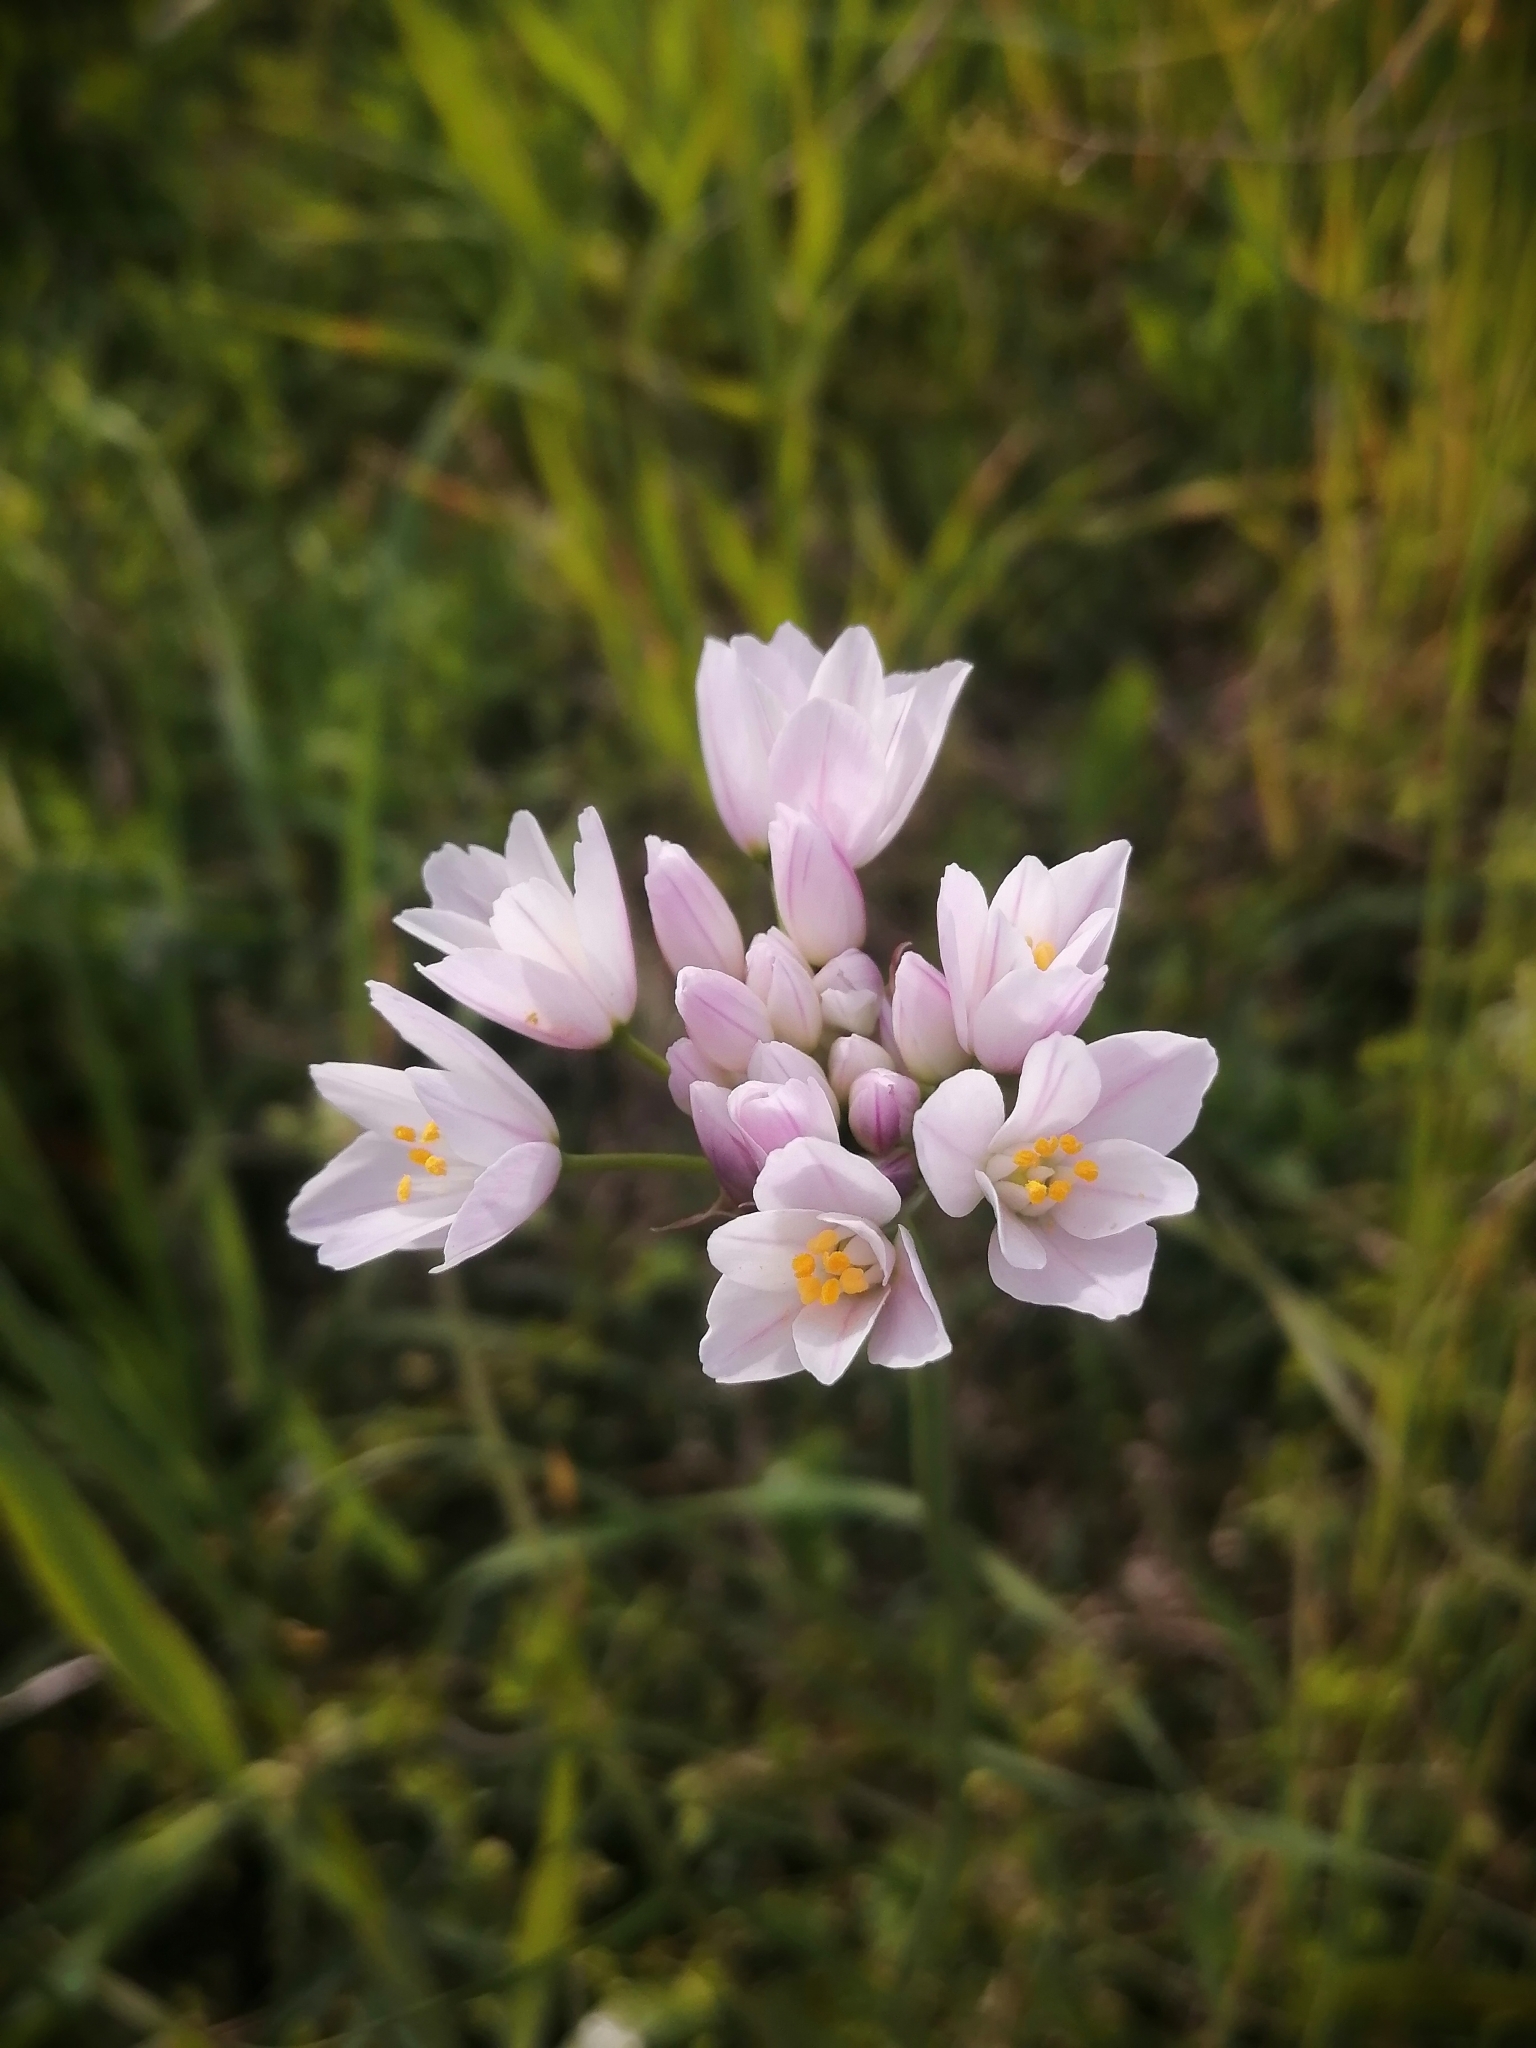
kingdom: Plantae
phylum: Tracheophyta
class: Liliopsida
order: Asparagales
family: Amaryllidaceae
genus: Allium
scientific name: Allium roseum
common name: Rosy garlic
